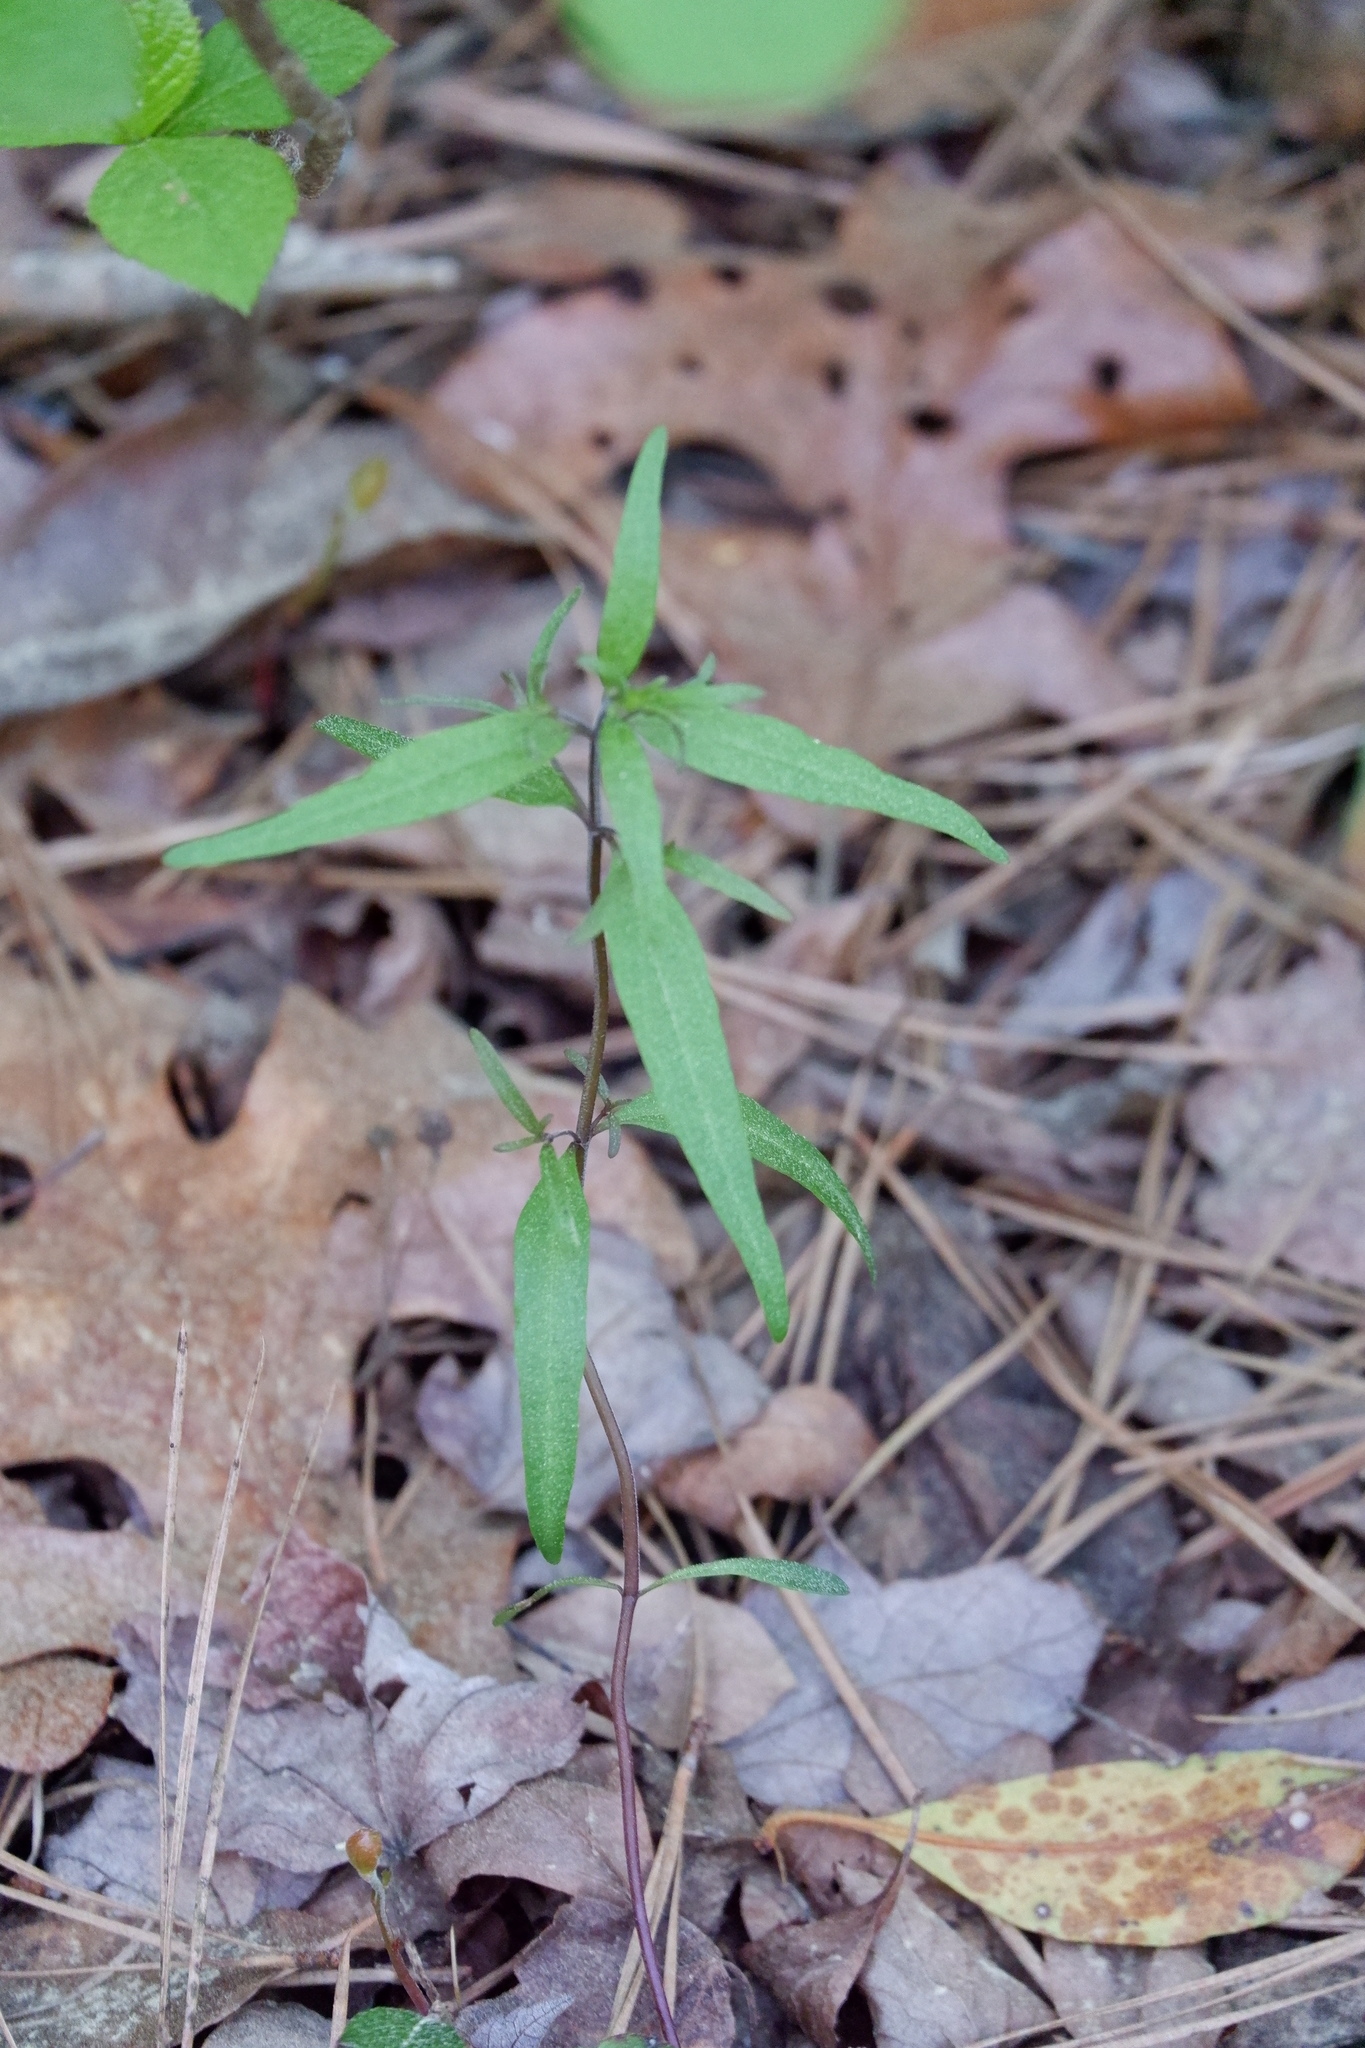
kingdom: Plantae
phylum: Tracheophyta
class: Magnoliopsida
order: Lamiales
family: Orobanchaceae
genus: Melampyrum
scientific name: Melampyrum lineare
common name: American cow-wheat
